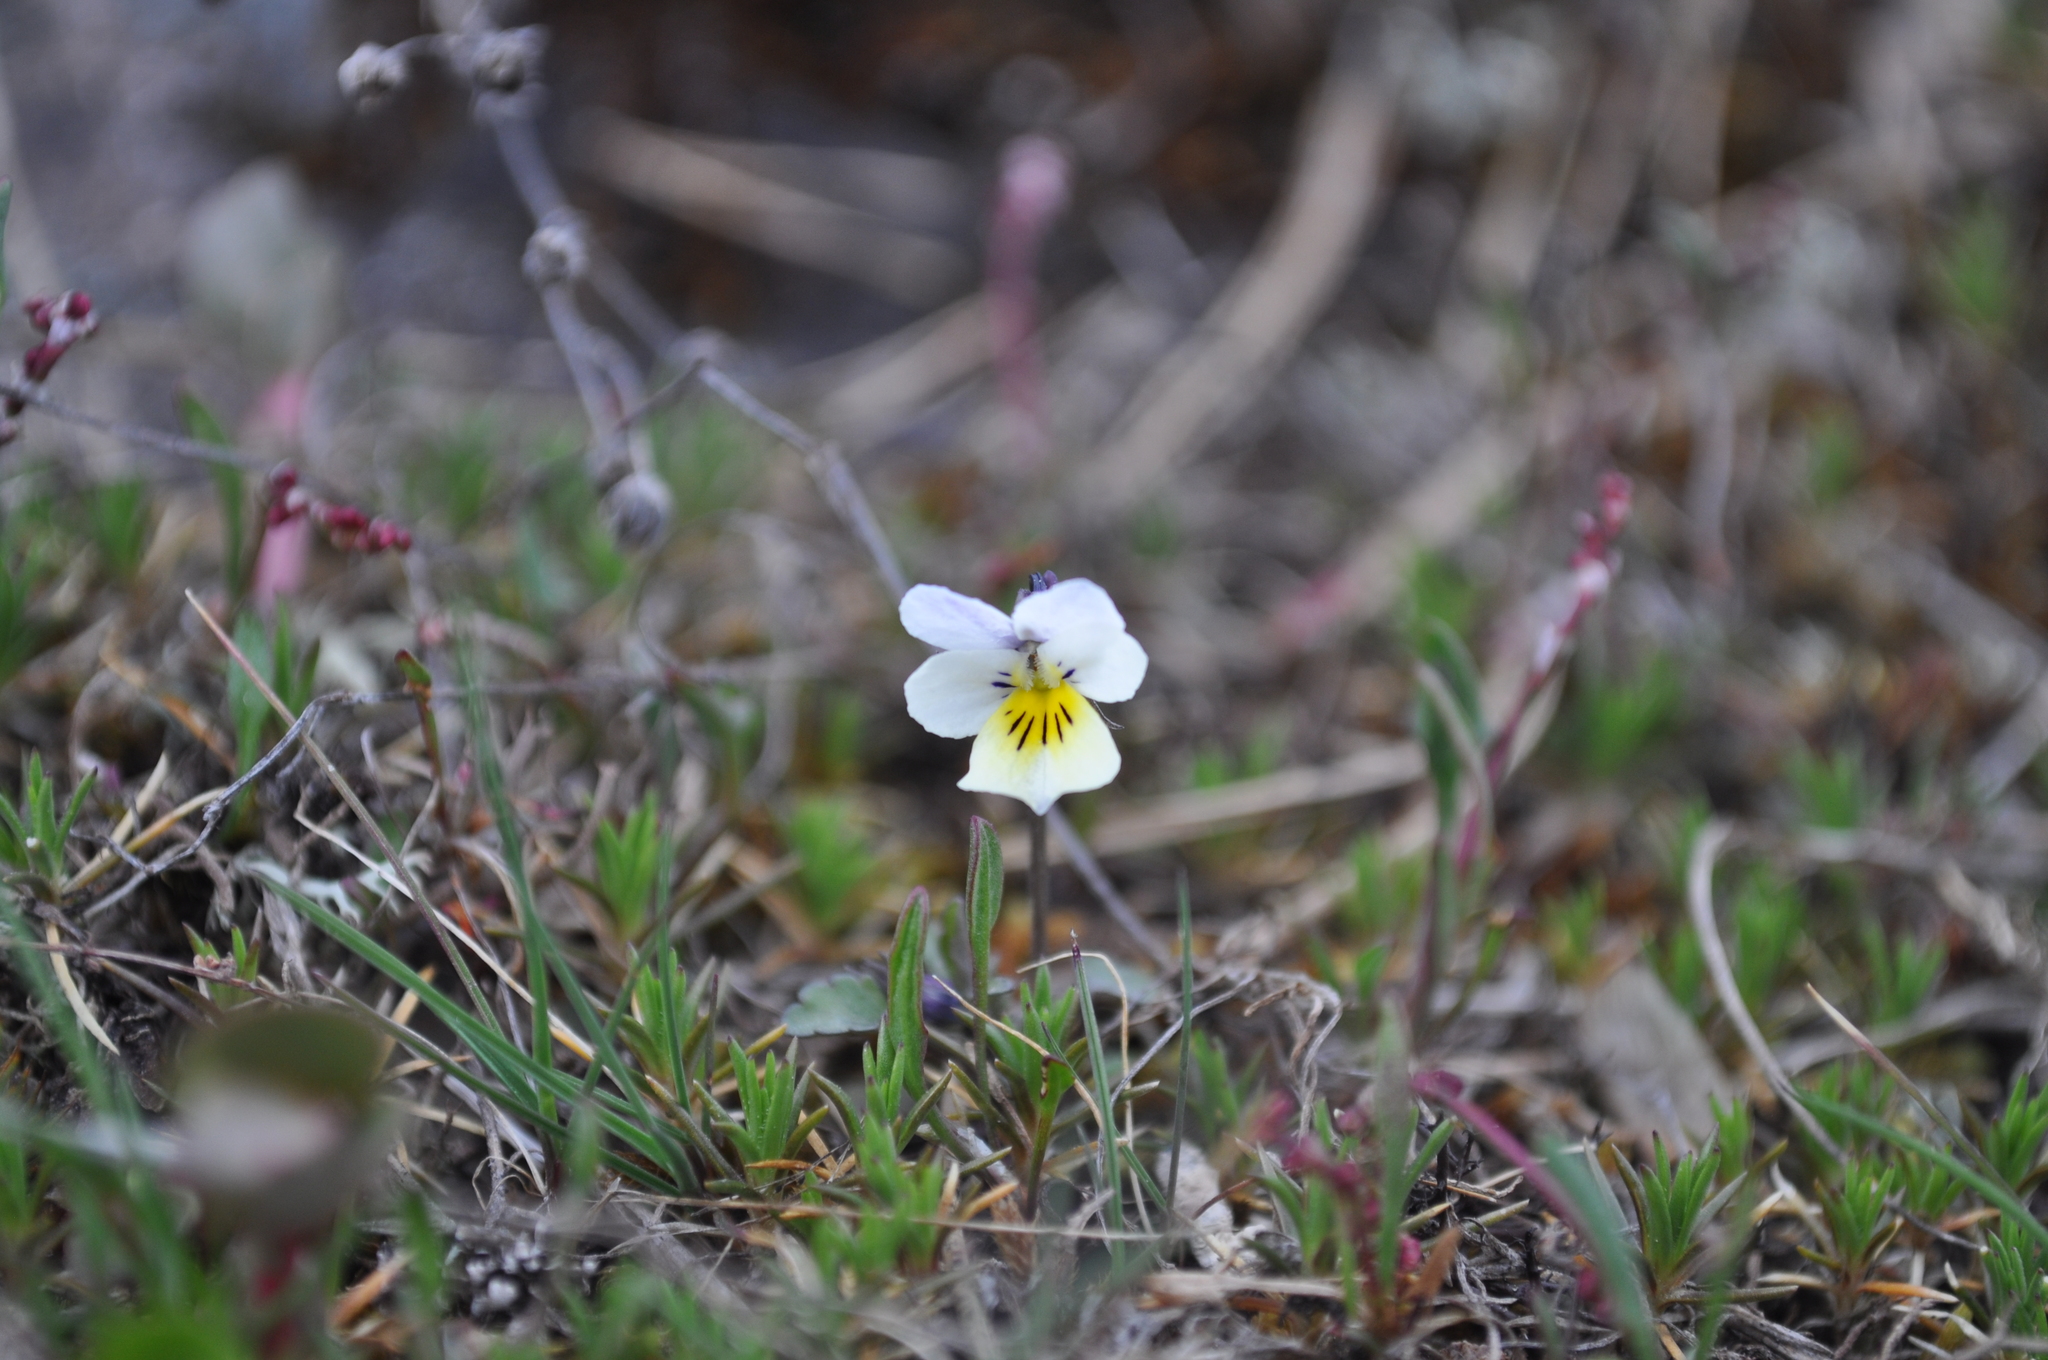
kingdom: Plantae
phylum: Tracheophyta
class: Magnoliopsida
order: Malpighiales
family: Violaceae
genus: Viola
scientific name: Viola tricolor
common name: Pansy
